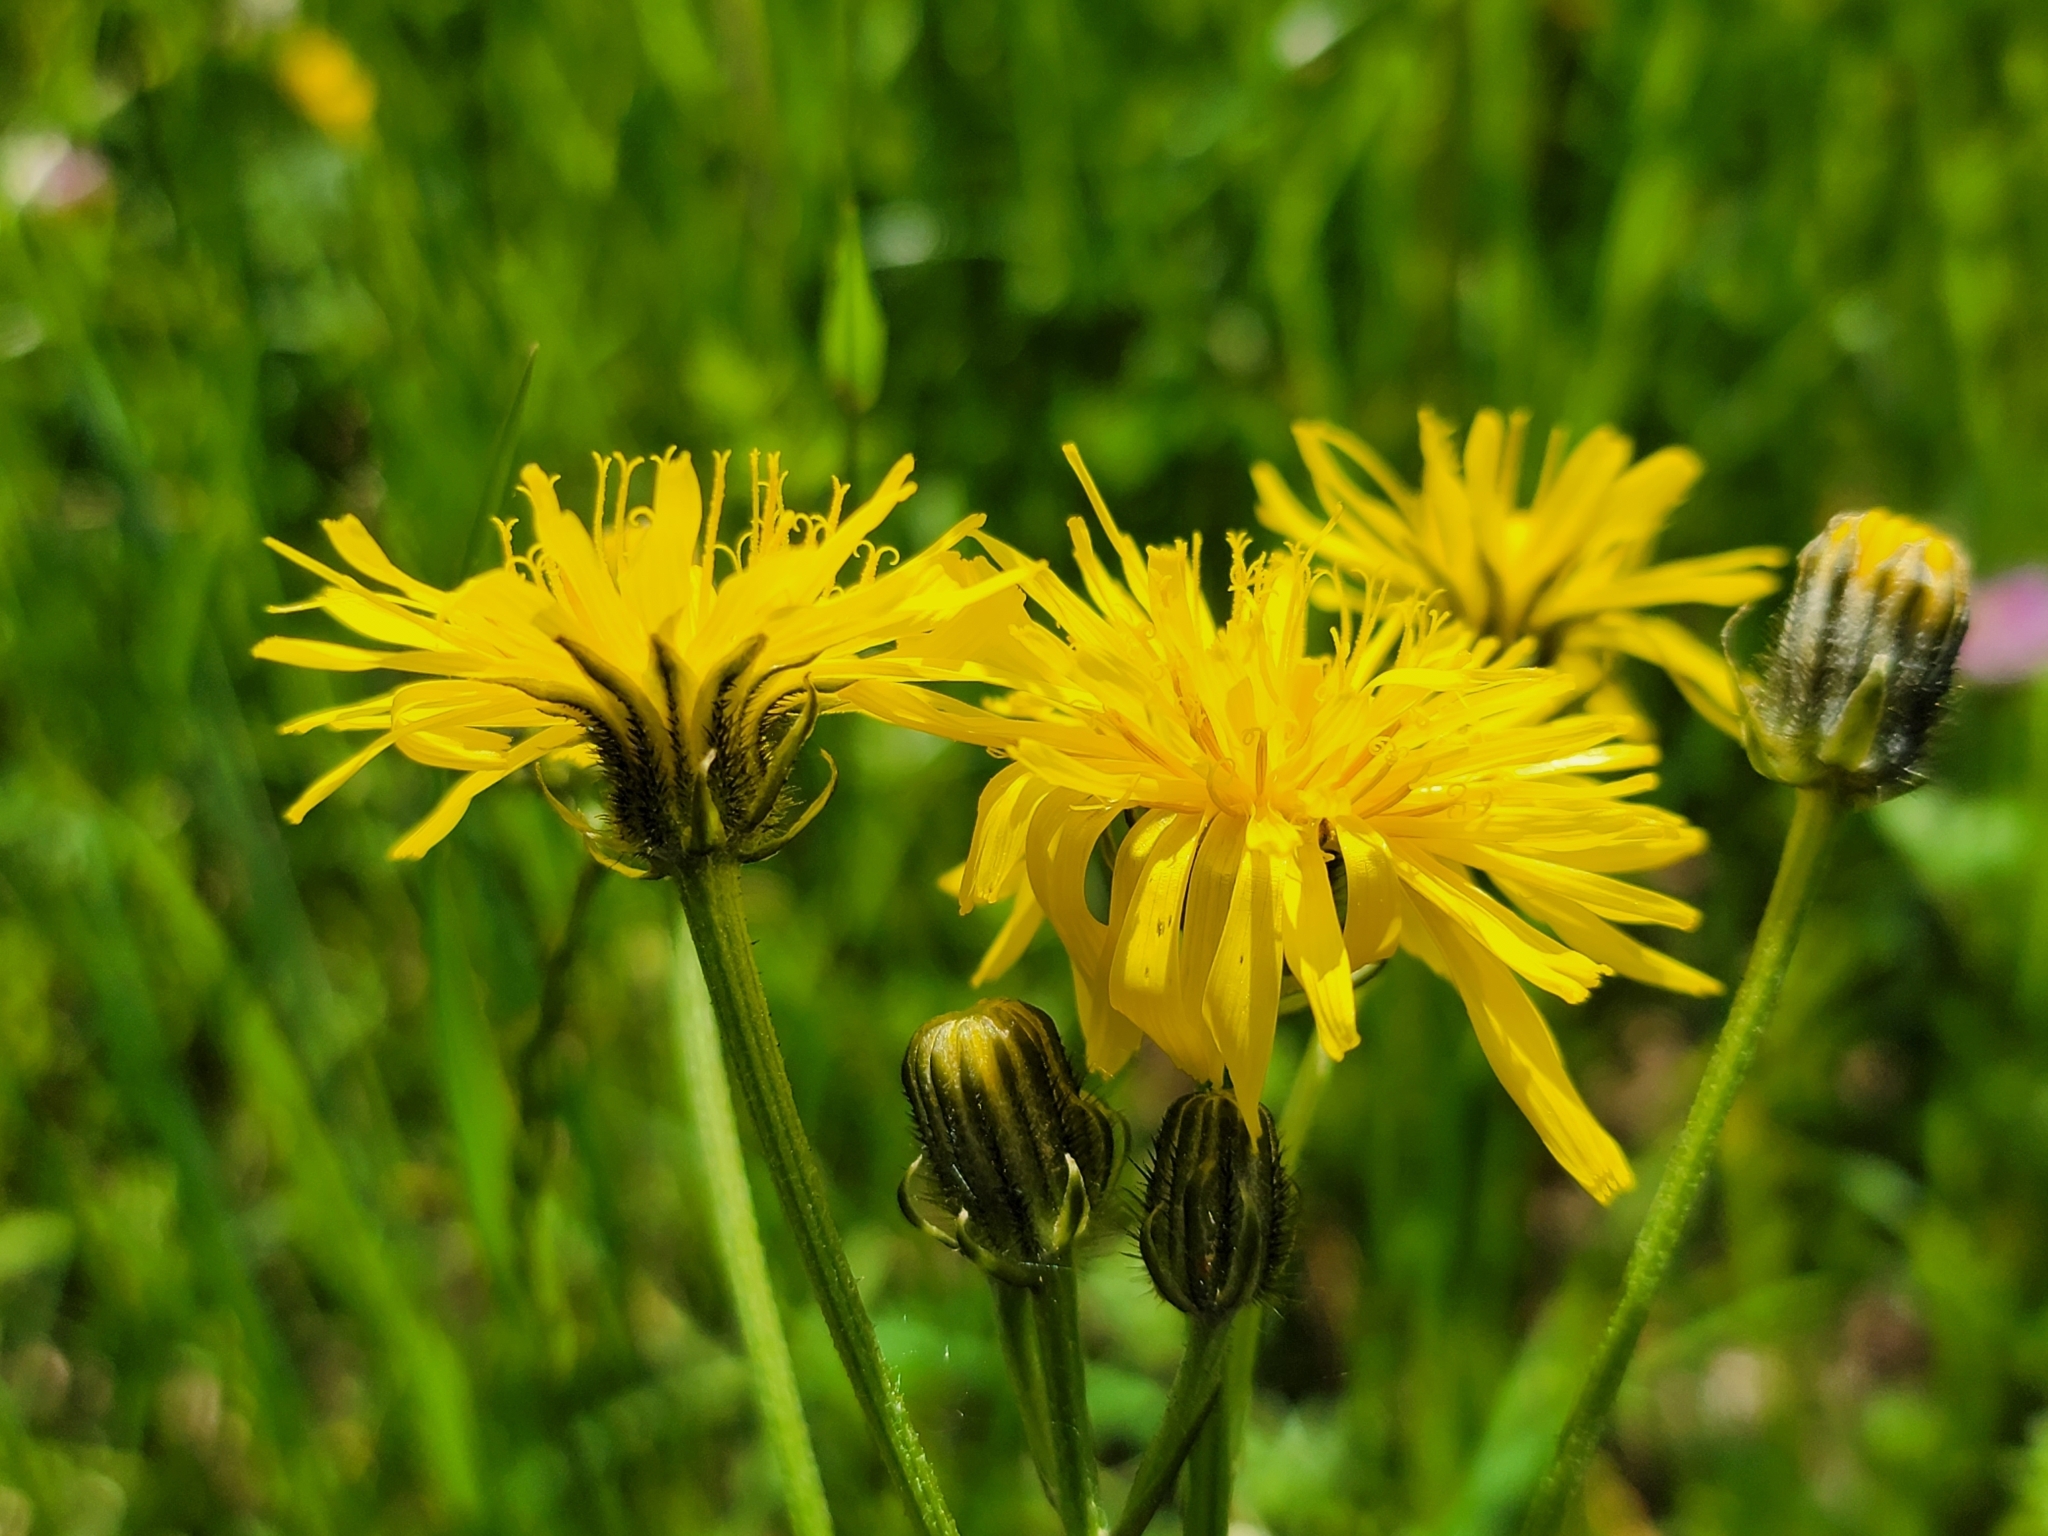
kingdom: Plantae
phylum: Tracheophyta
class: Magnoliopsida
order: Asterales
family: Asteraceae
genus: Crepis
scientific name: Crepis biennis
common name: Rough hawk's-beard
